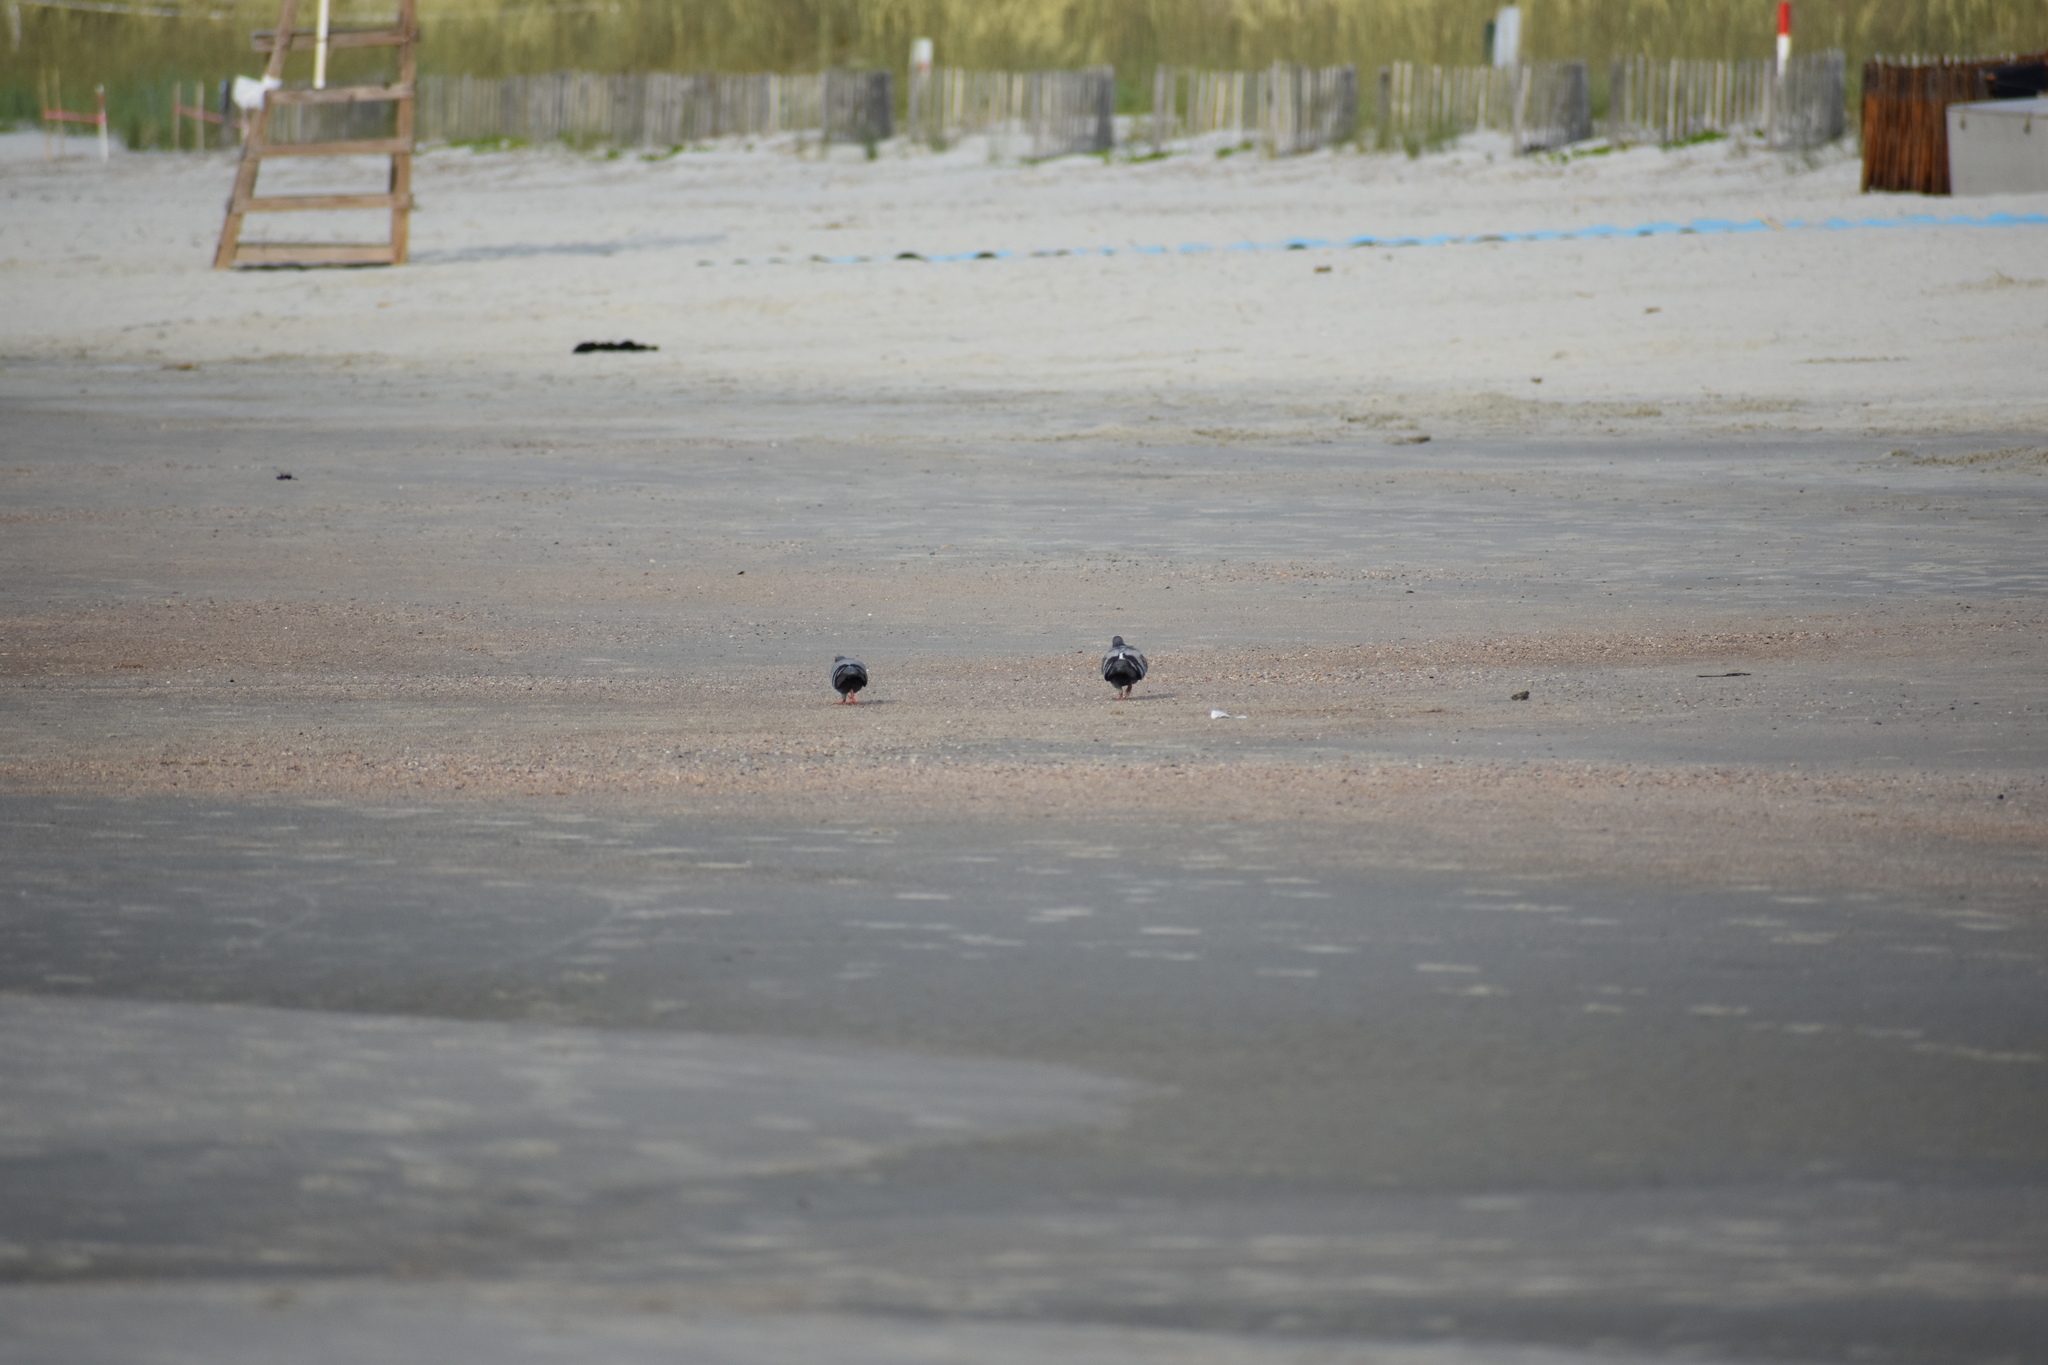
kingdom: Animalia
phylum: Chordata
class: Aves
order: Columbiformes
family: Columbidae
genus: Columba
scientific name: Columba livia
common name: Rock pigeon
